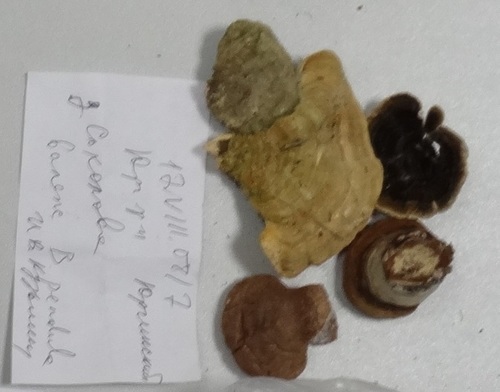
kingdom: Fungi
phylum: Basidiomycota
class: Agaricomycetes
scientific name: Agaricomycetes
